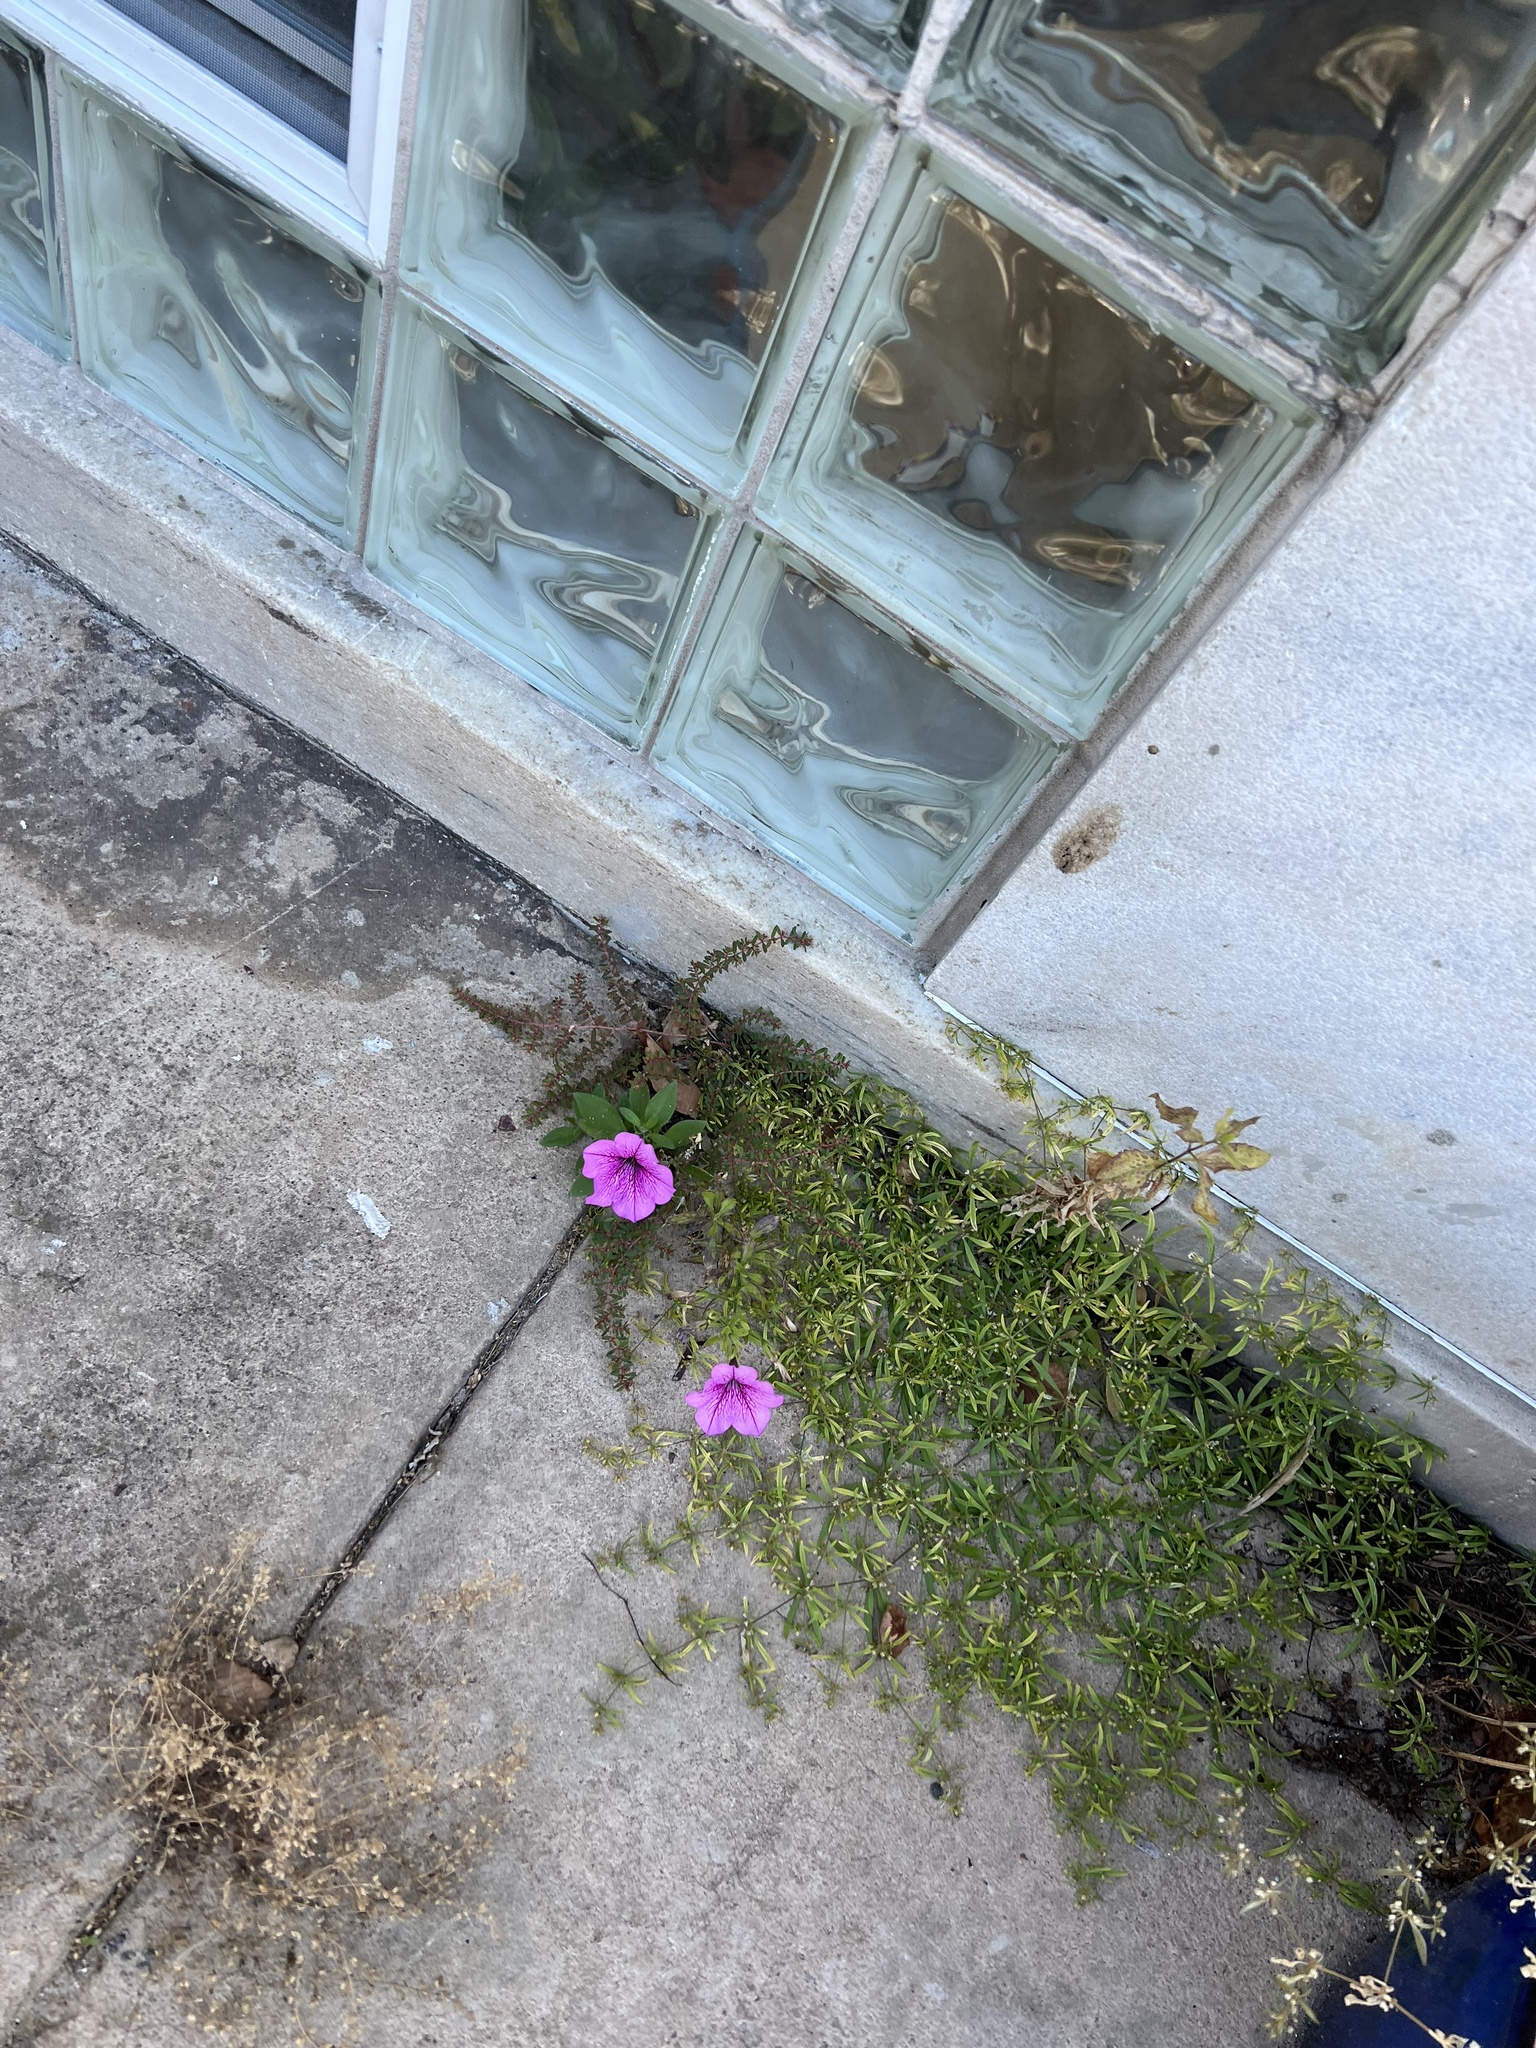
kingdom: Plantae
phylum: Tracheophyta
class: Magnoliopsida
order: Solanales
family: Solanaceae
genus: Petunia
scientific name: Petunia atkinsiana
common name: Petunia
